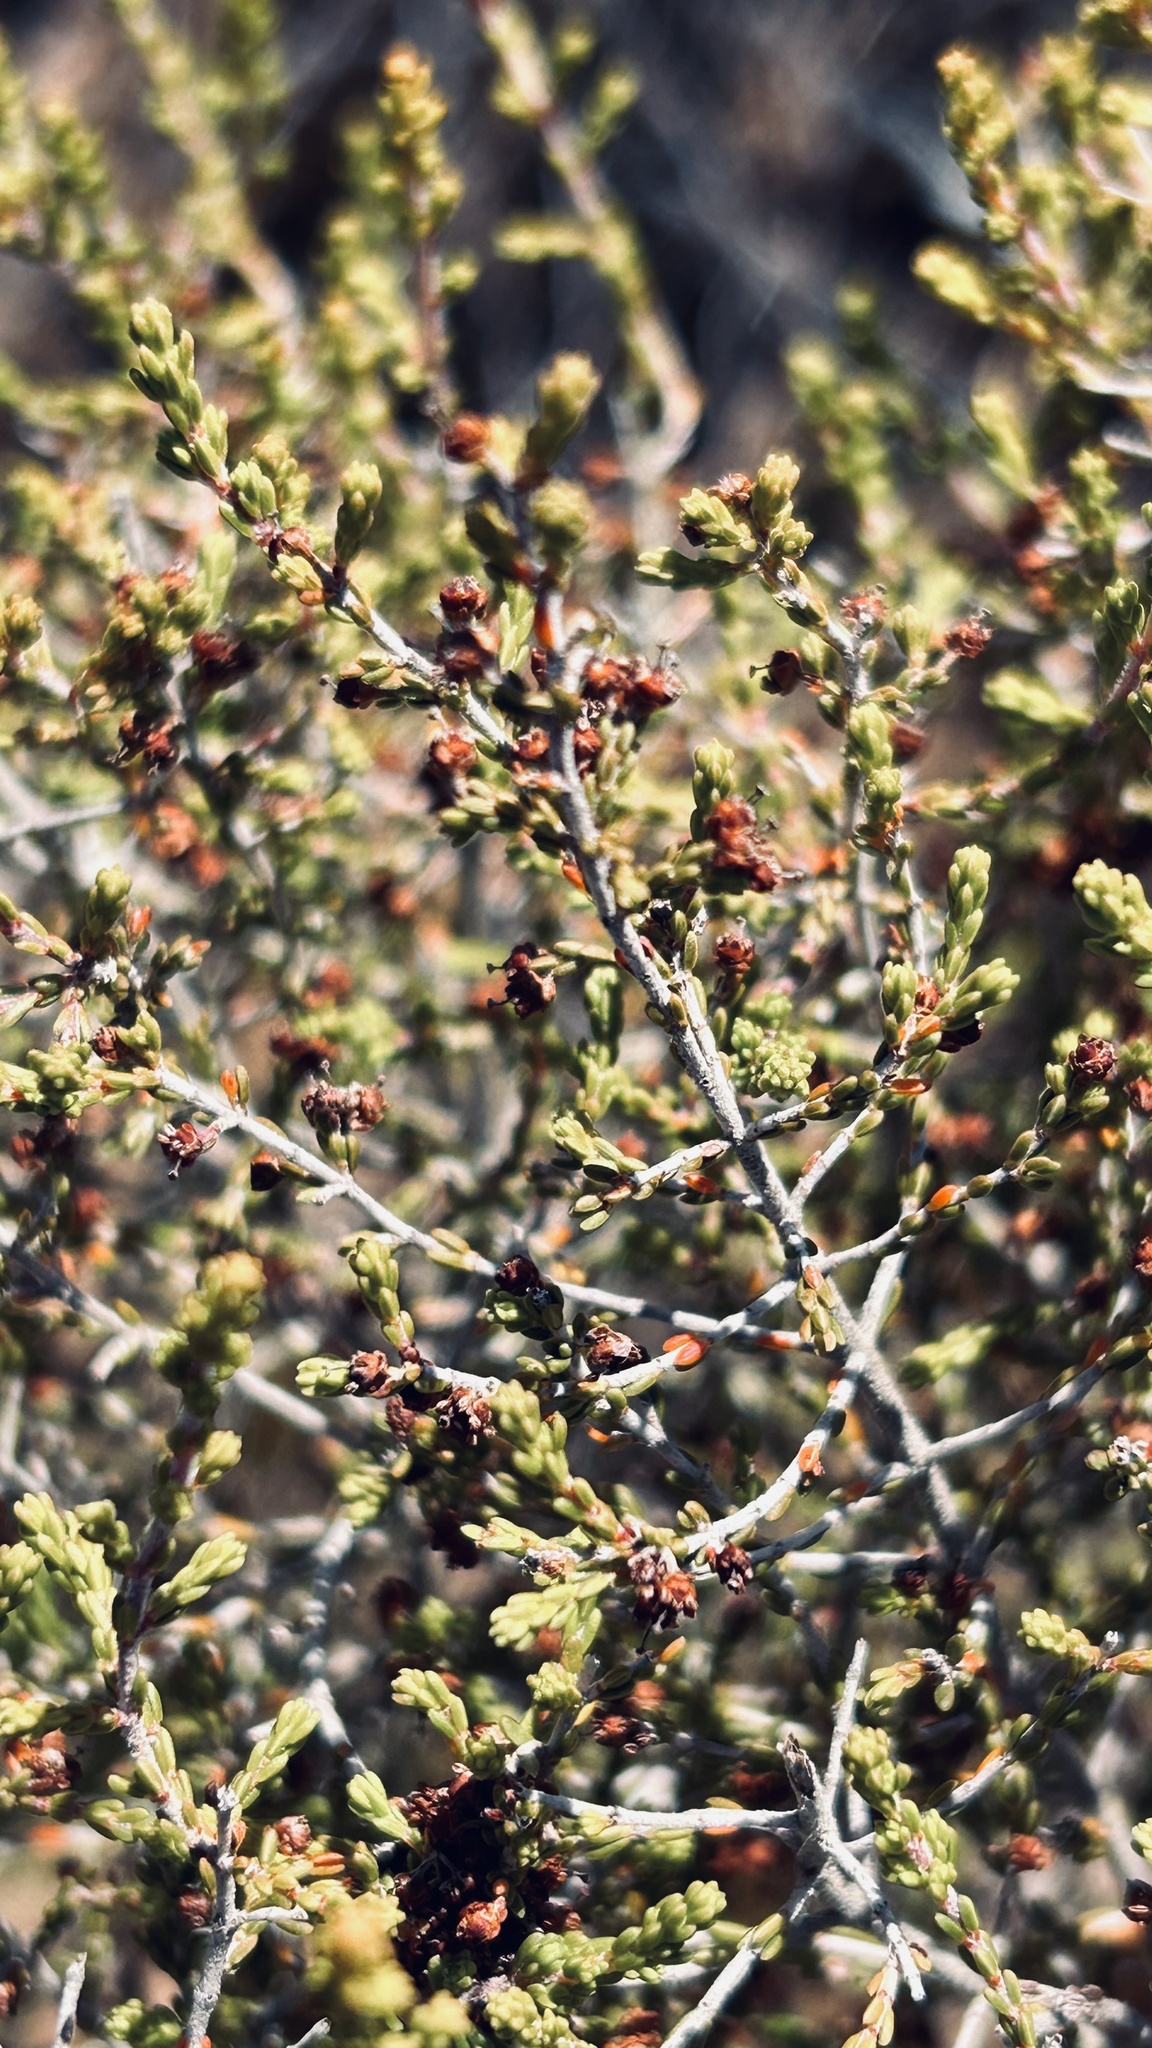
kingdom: Plantae
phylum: Tracheophyta
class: Magnoliopsida
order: Ericales
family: Ericaceae
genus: Erica
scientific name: Erica peltata
